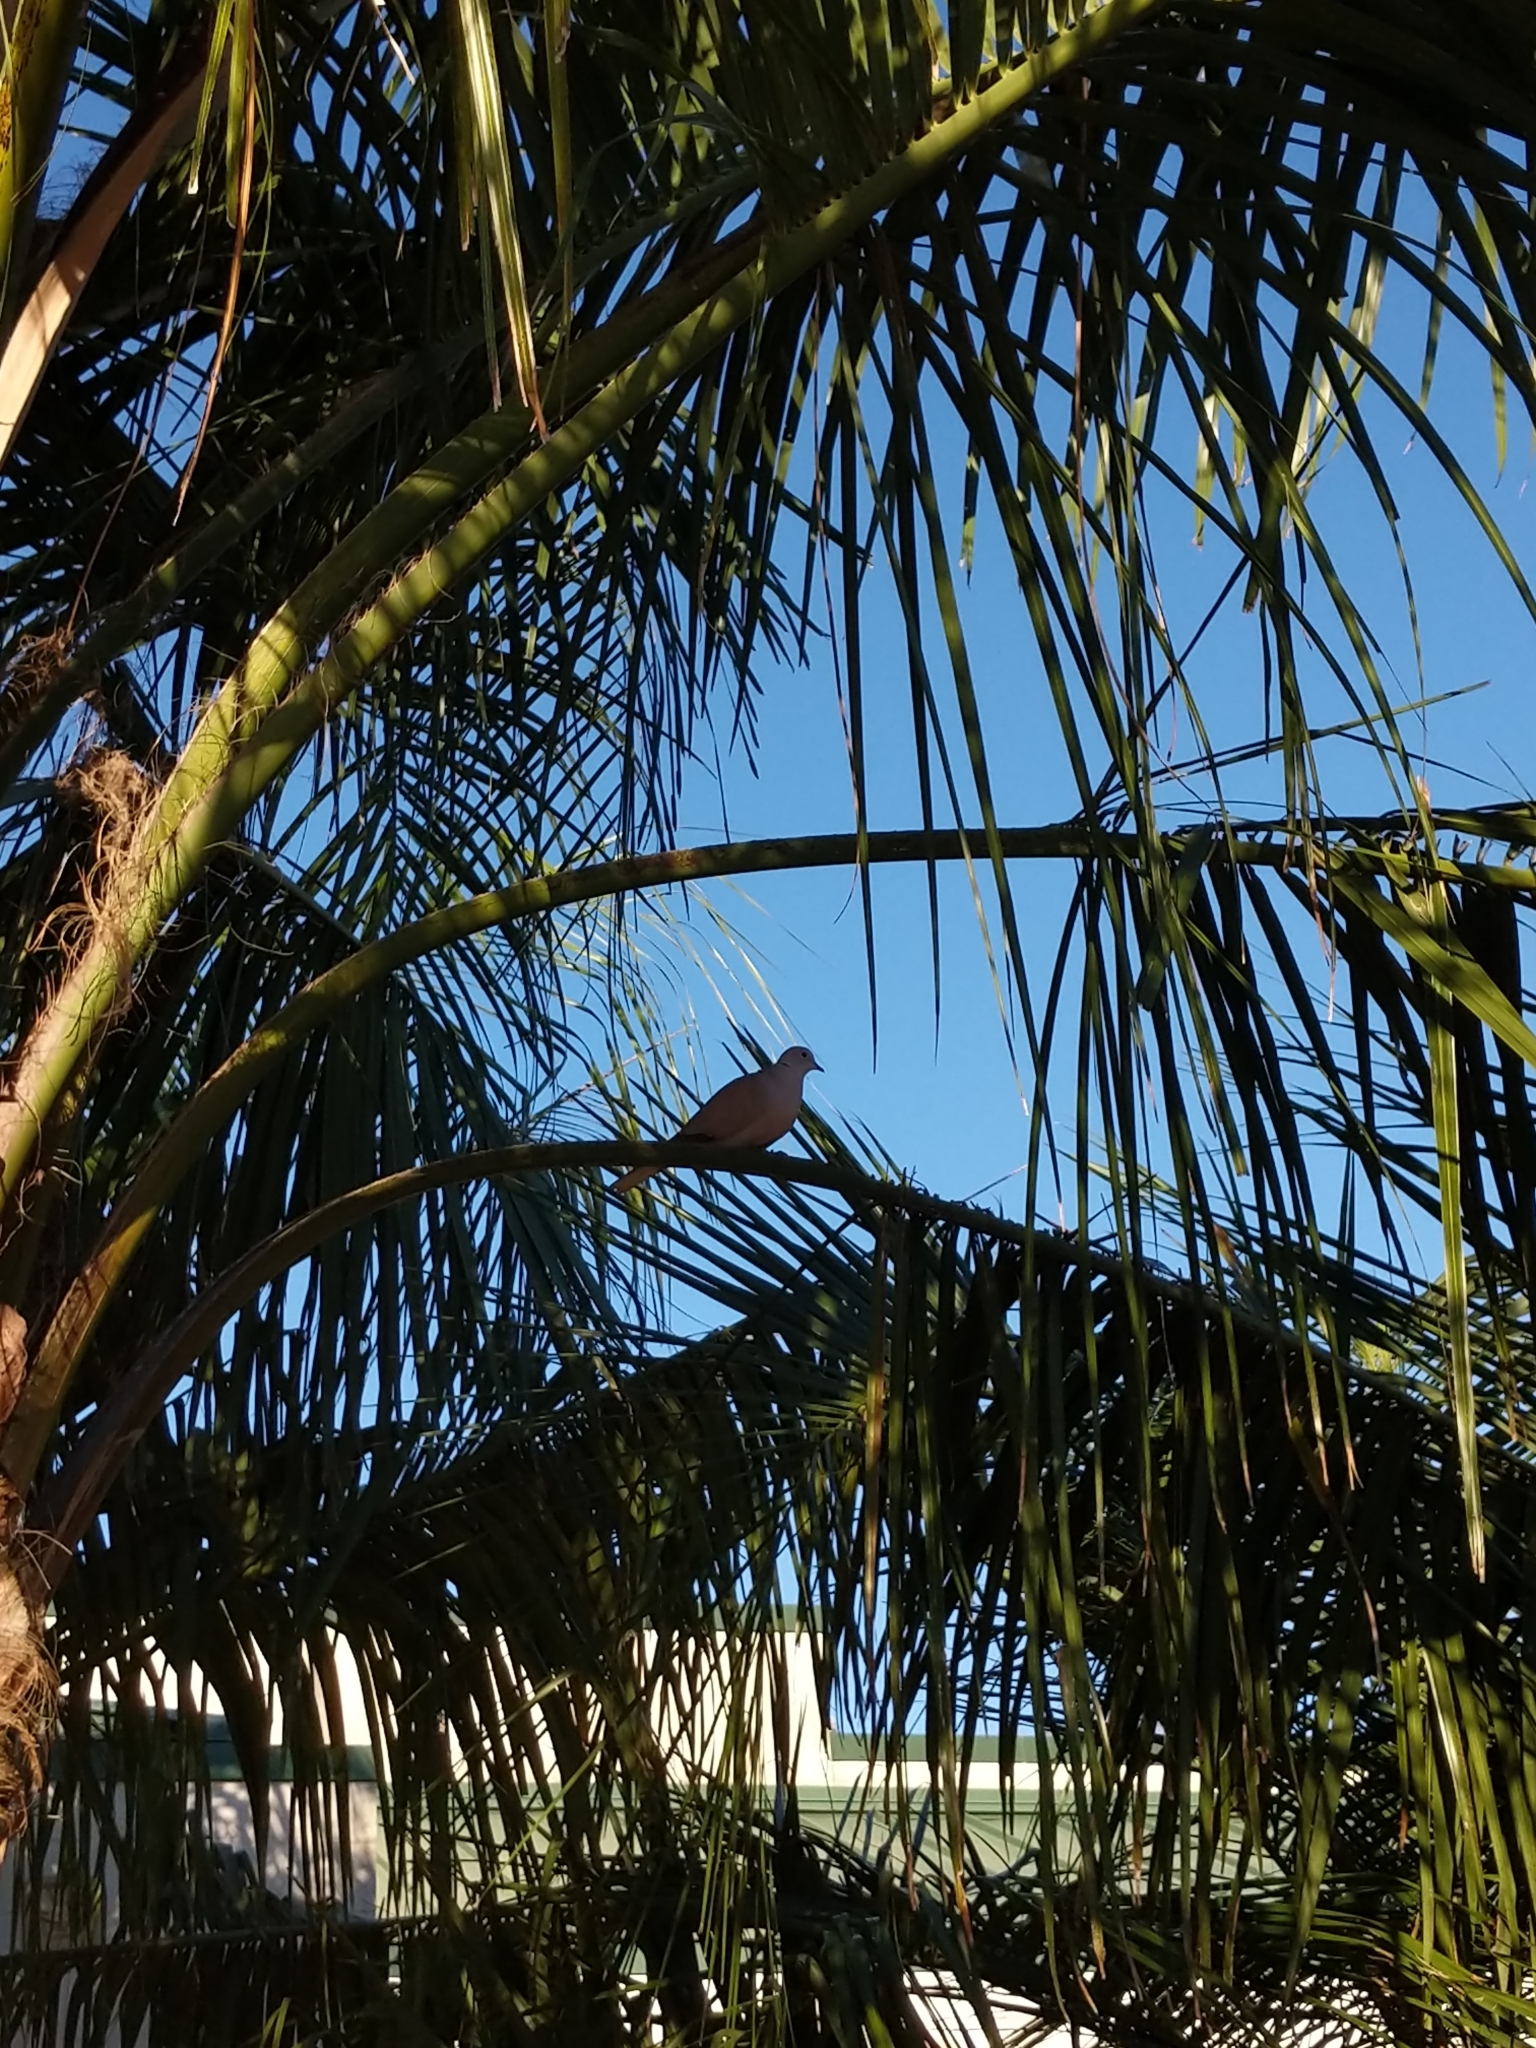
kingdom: Animalia
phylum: Chordata
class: Aves
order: Columbiformes
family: Columbidae
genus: Streptopelia
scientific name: Streptopelia decaocto
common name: Eurasian collared dove
